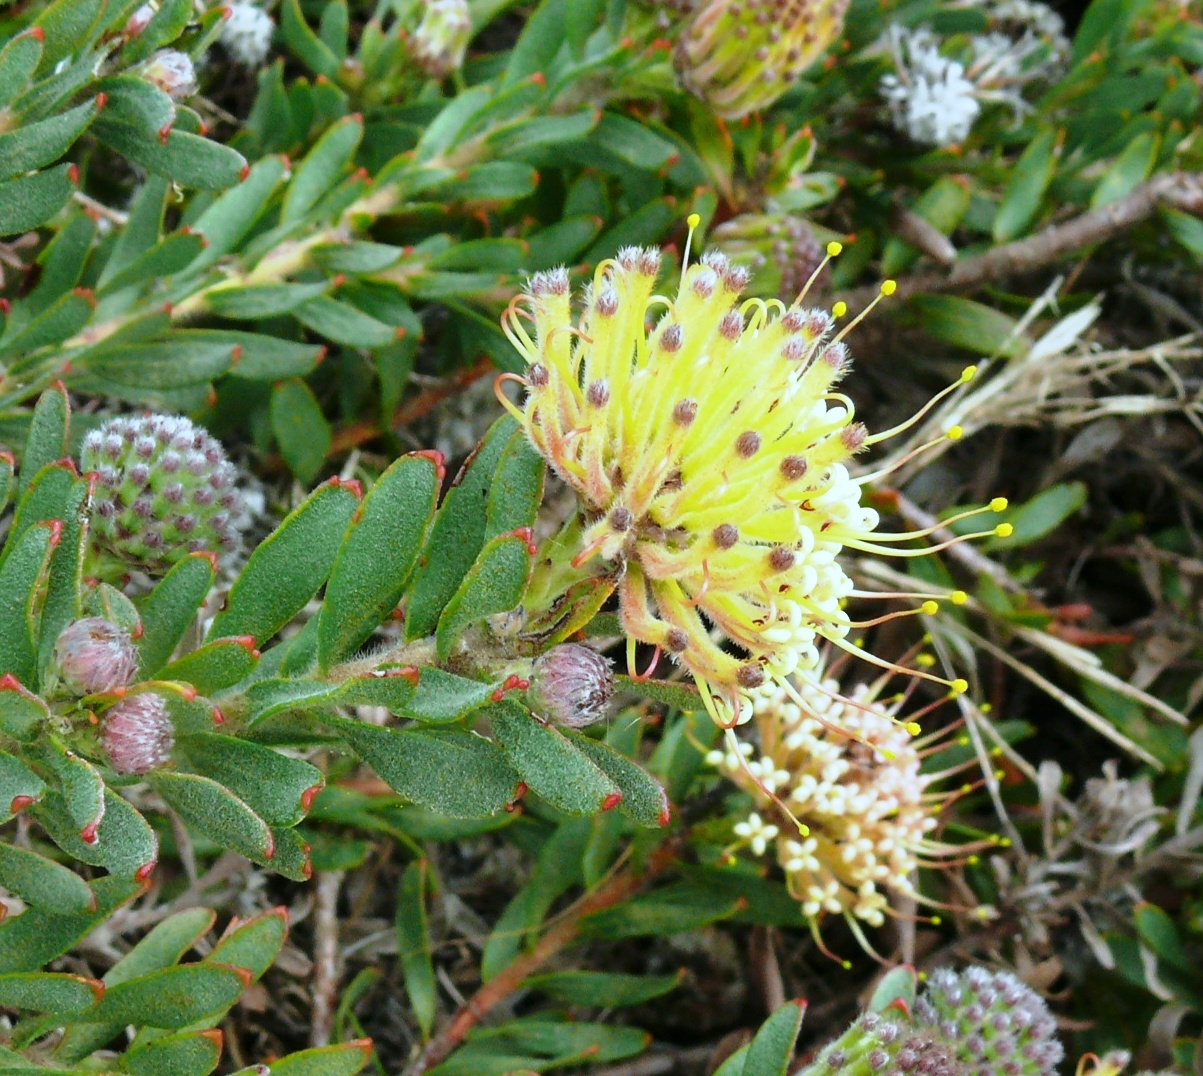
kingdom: Plantae
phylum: Tracheophyta
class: Magnoliopsida
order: Proteales
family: Proteaceae
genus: Leucospermum
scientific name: Leucospermum heterophyllum
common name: Trident pincushion
